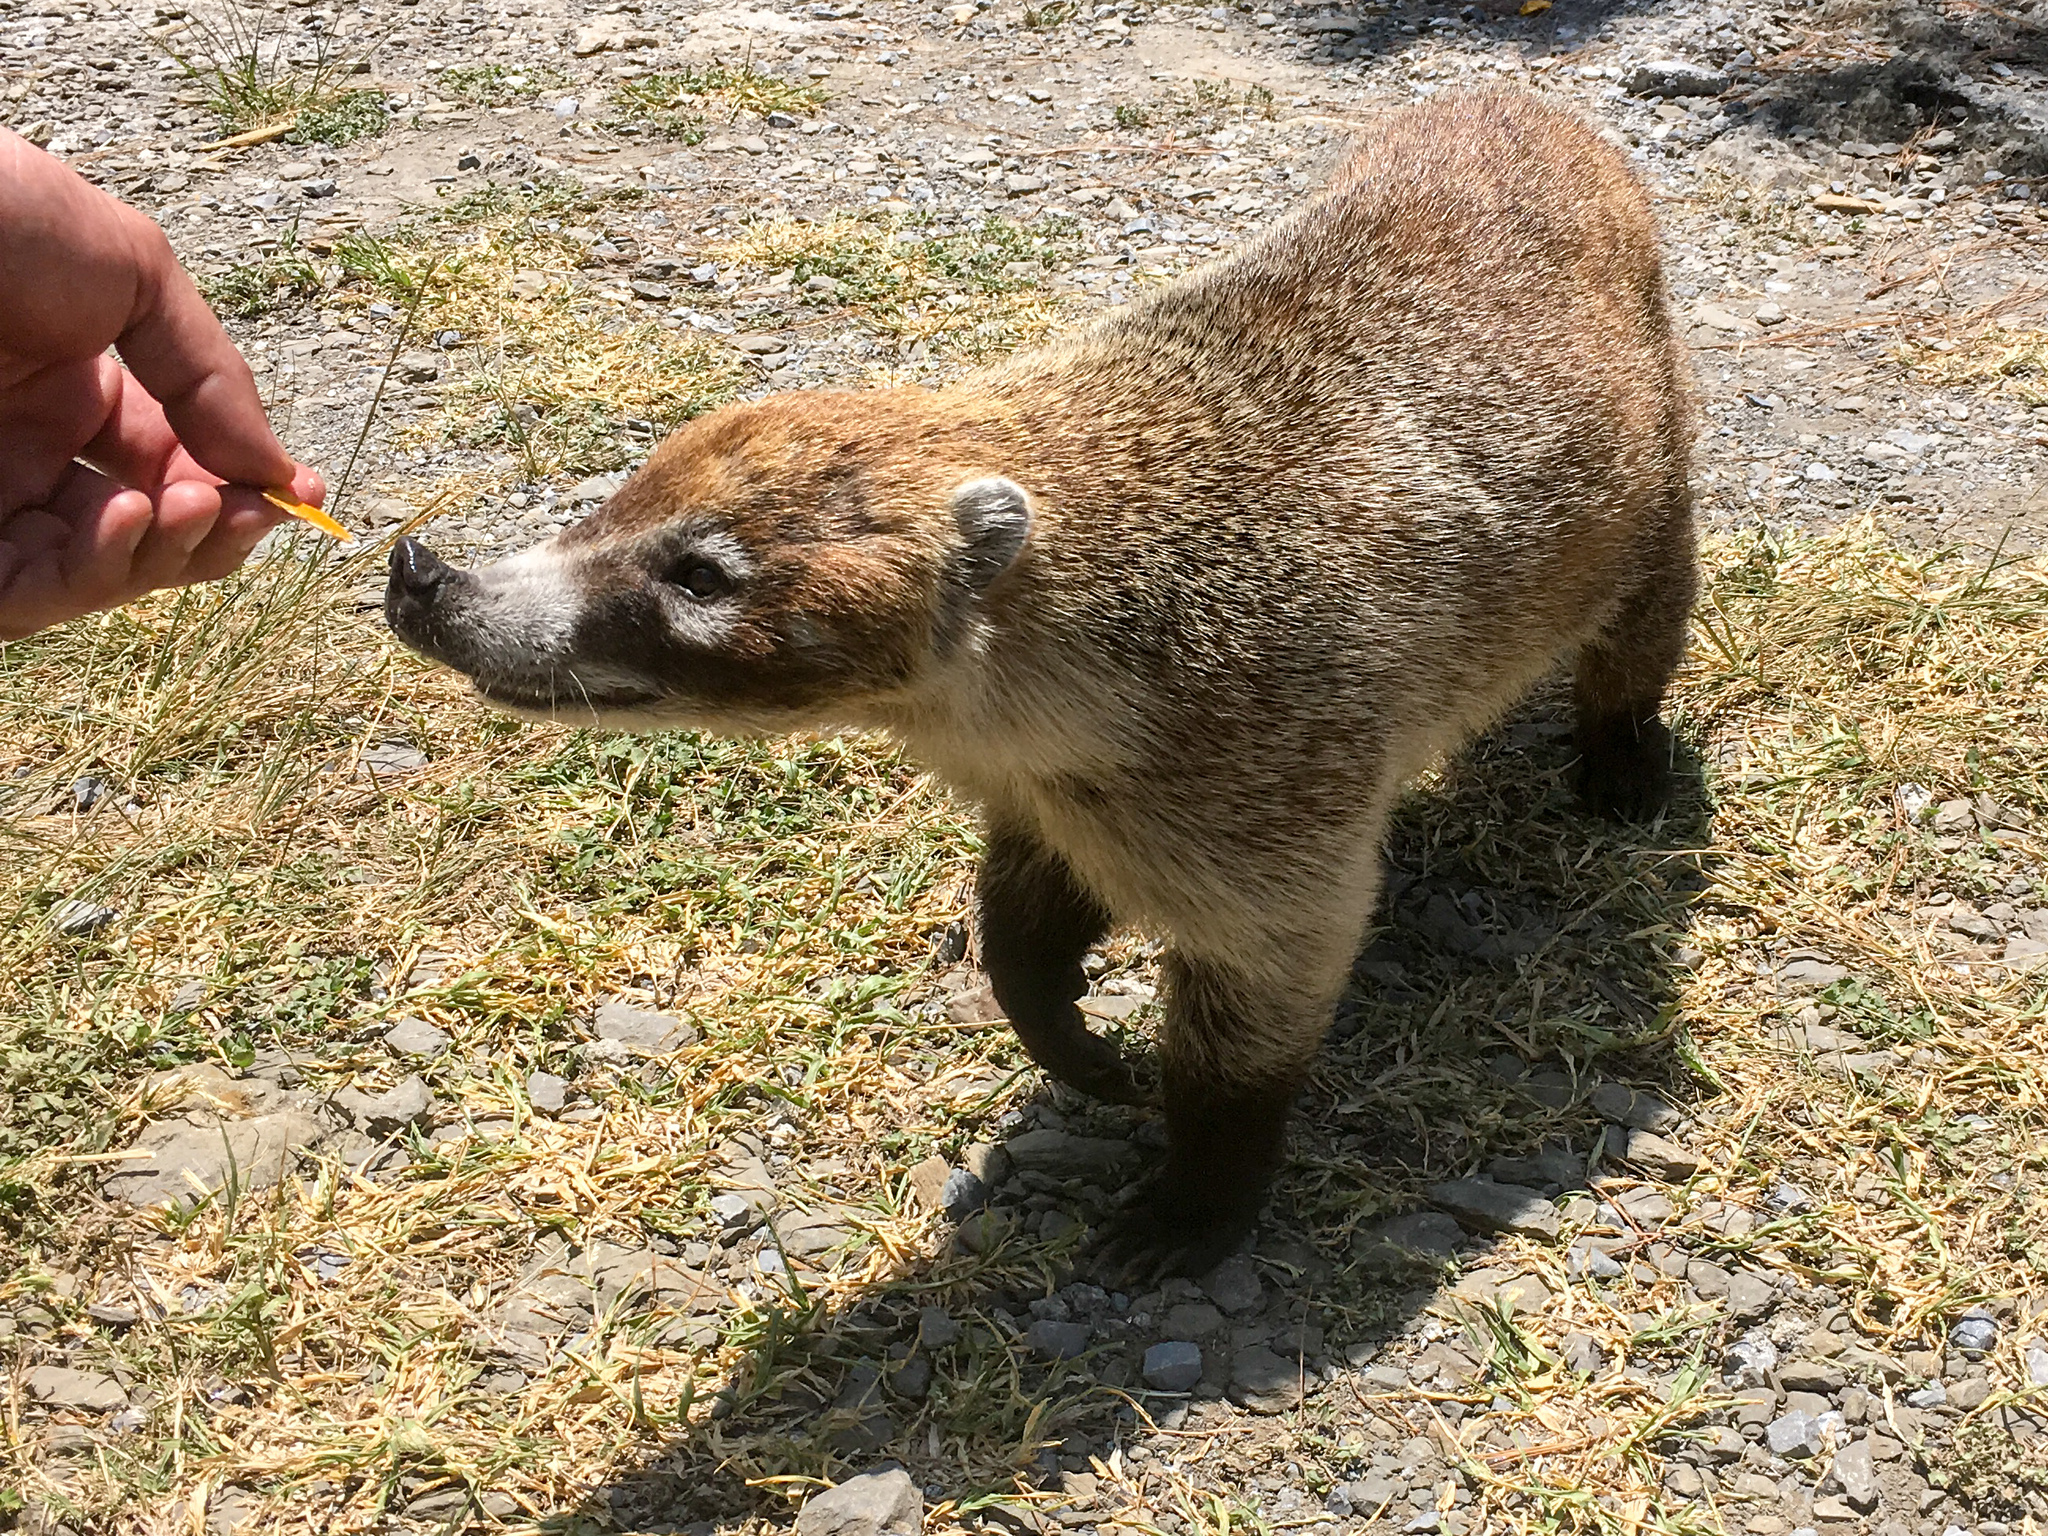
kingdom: Animalia
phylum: Chordata
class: Mammalia
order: Carnivora
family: Procyonidae
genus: Nasua
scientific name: Nasua narica
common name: White-nosed coati
